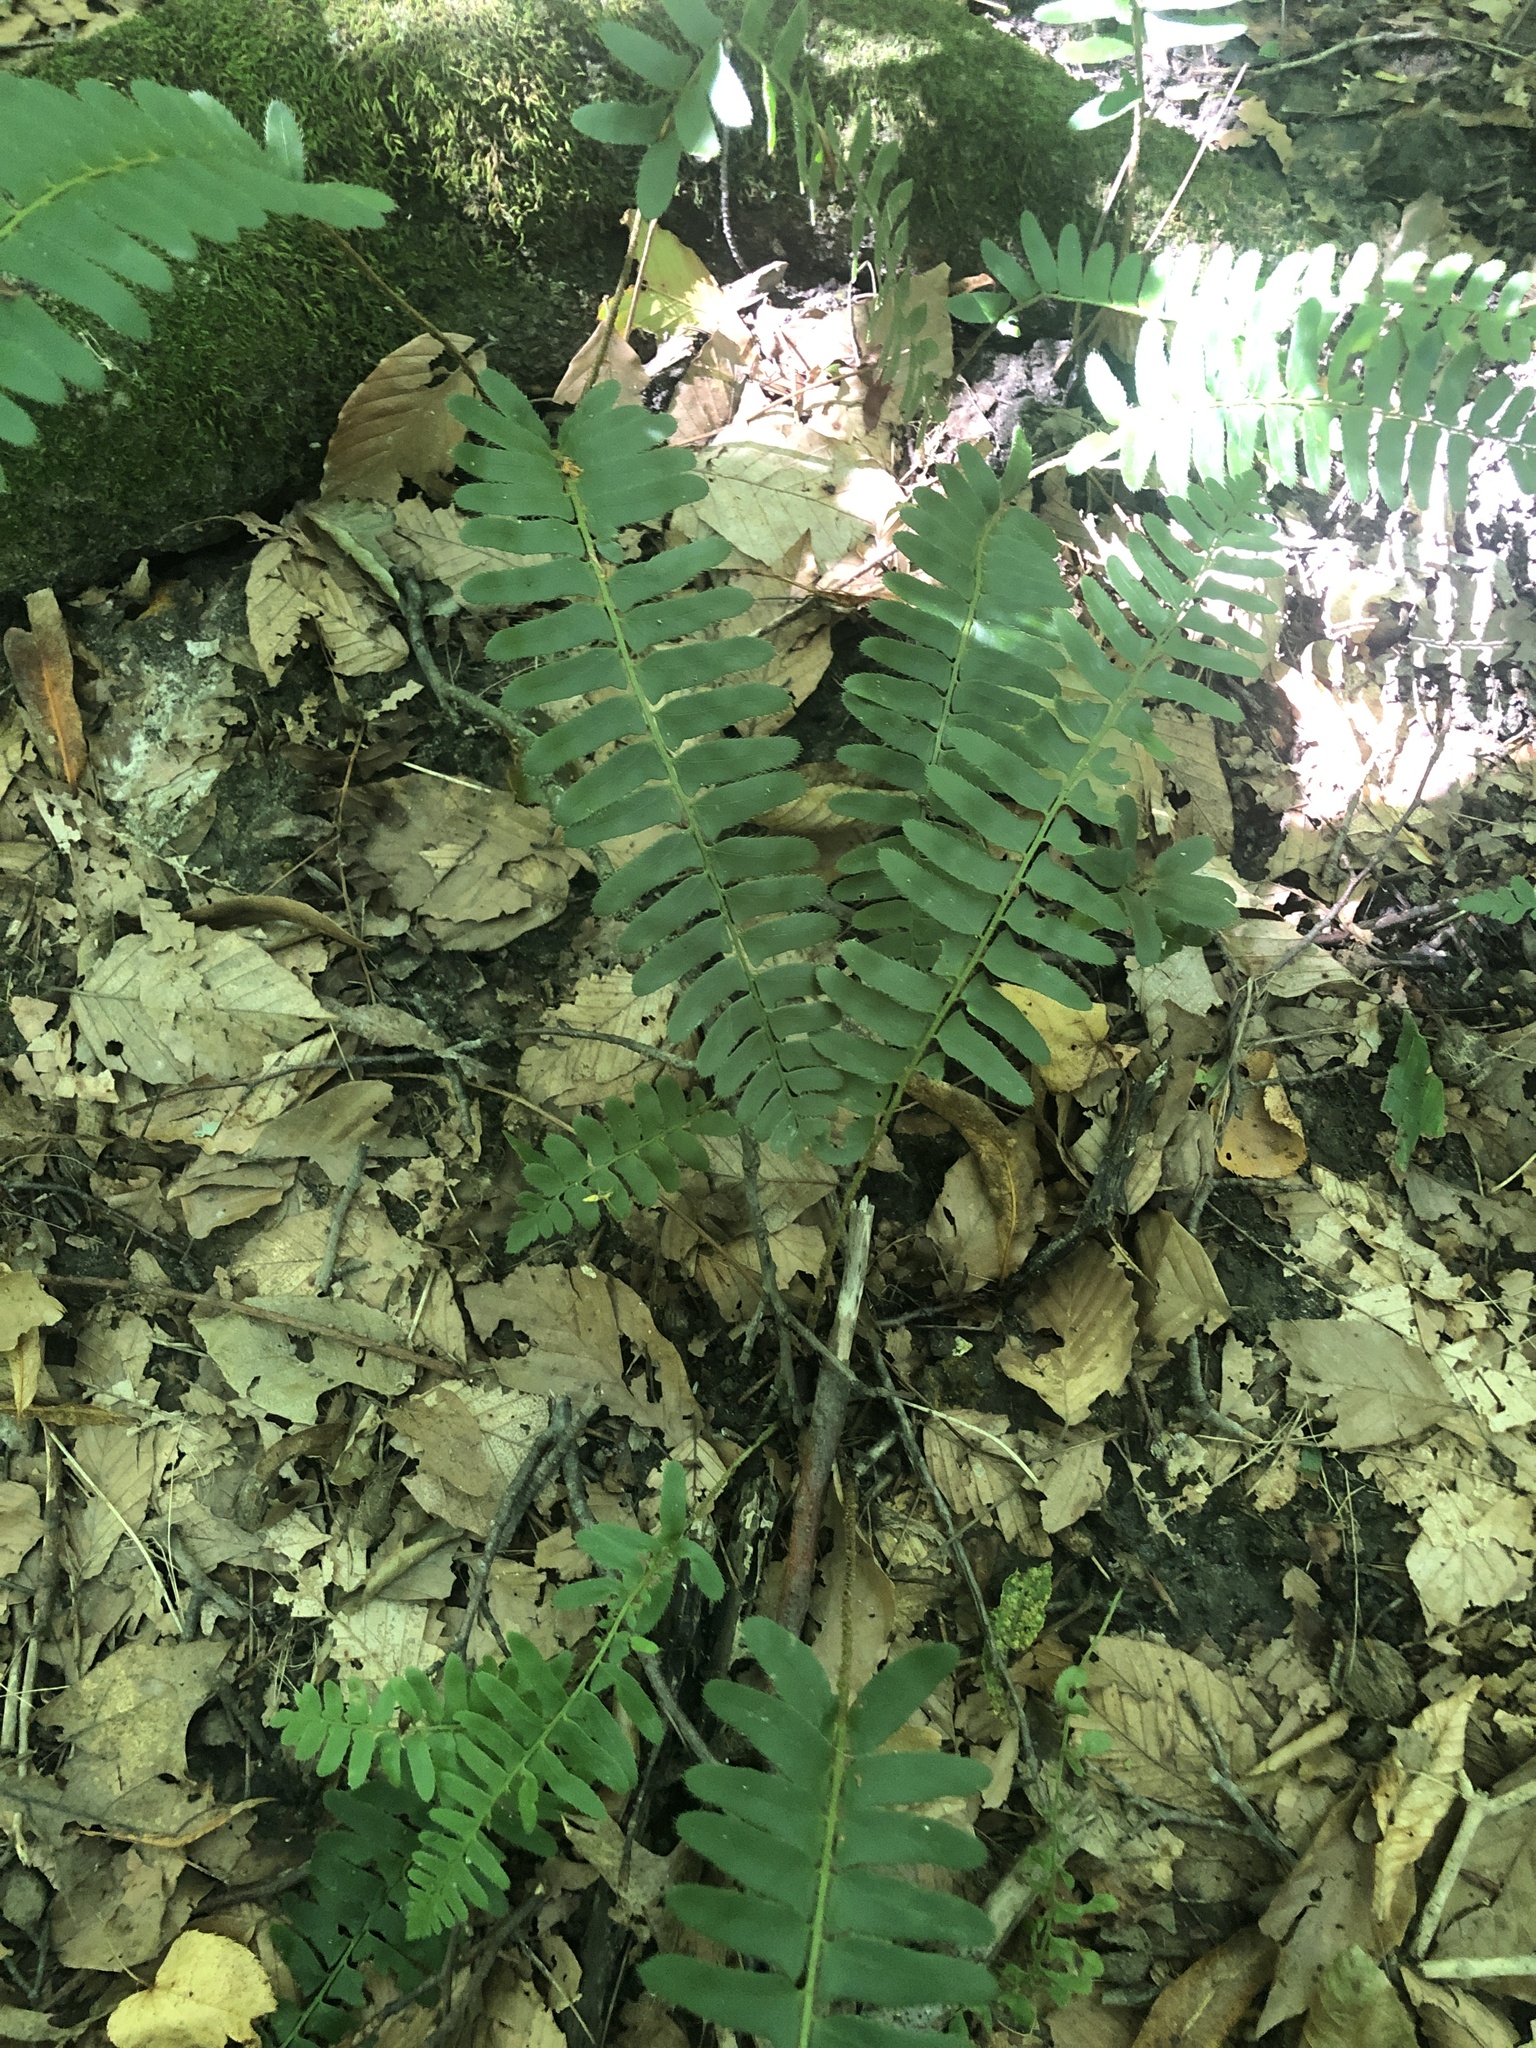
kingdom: Plantae
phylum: Tracheophyta
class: Polypodiopsida
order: Polypodiales
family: Dryopteridaceae
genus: Polystichum
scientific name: Polystichum acrostichoides
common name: Christmas fern
